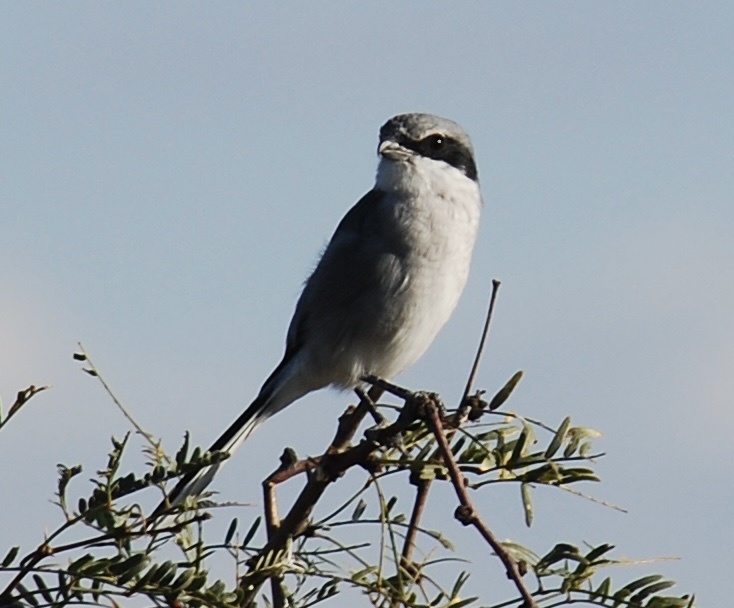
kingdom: Animalia
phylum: Chordata
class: Aves
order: Passeriformes
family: Laniidae
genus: Lanius
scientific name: Lanius ludovicianus
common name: Loggerhead shrike
